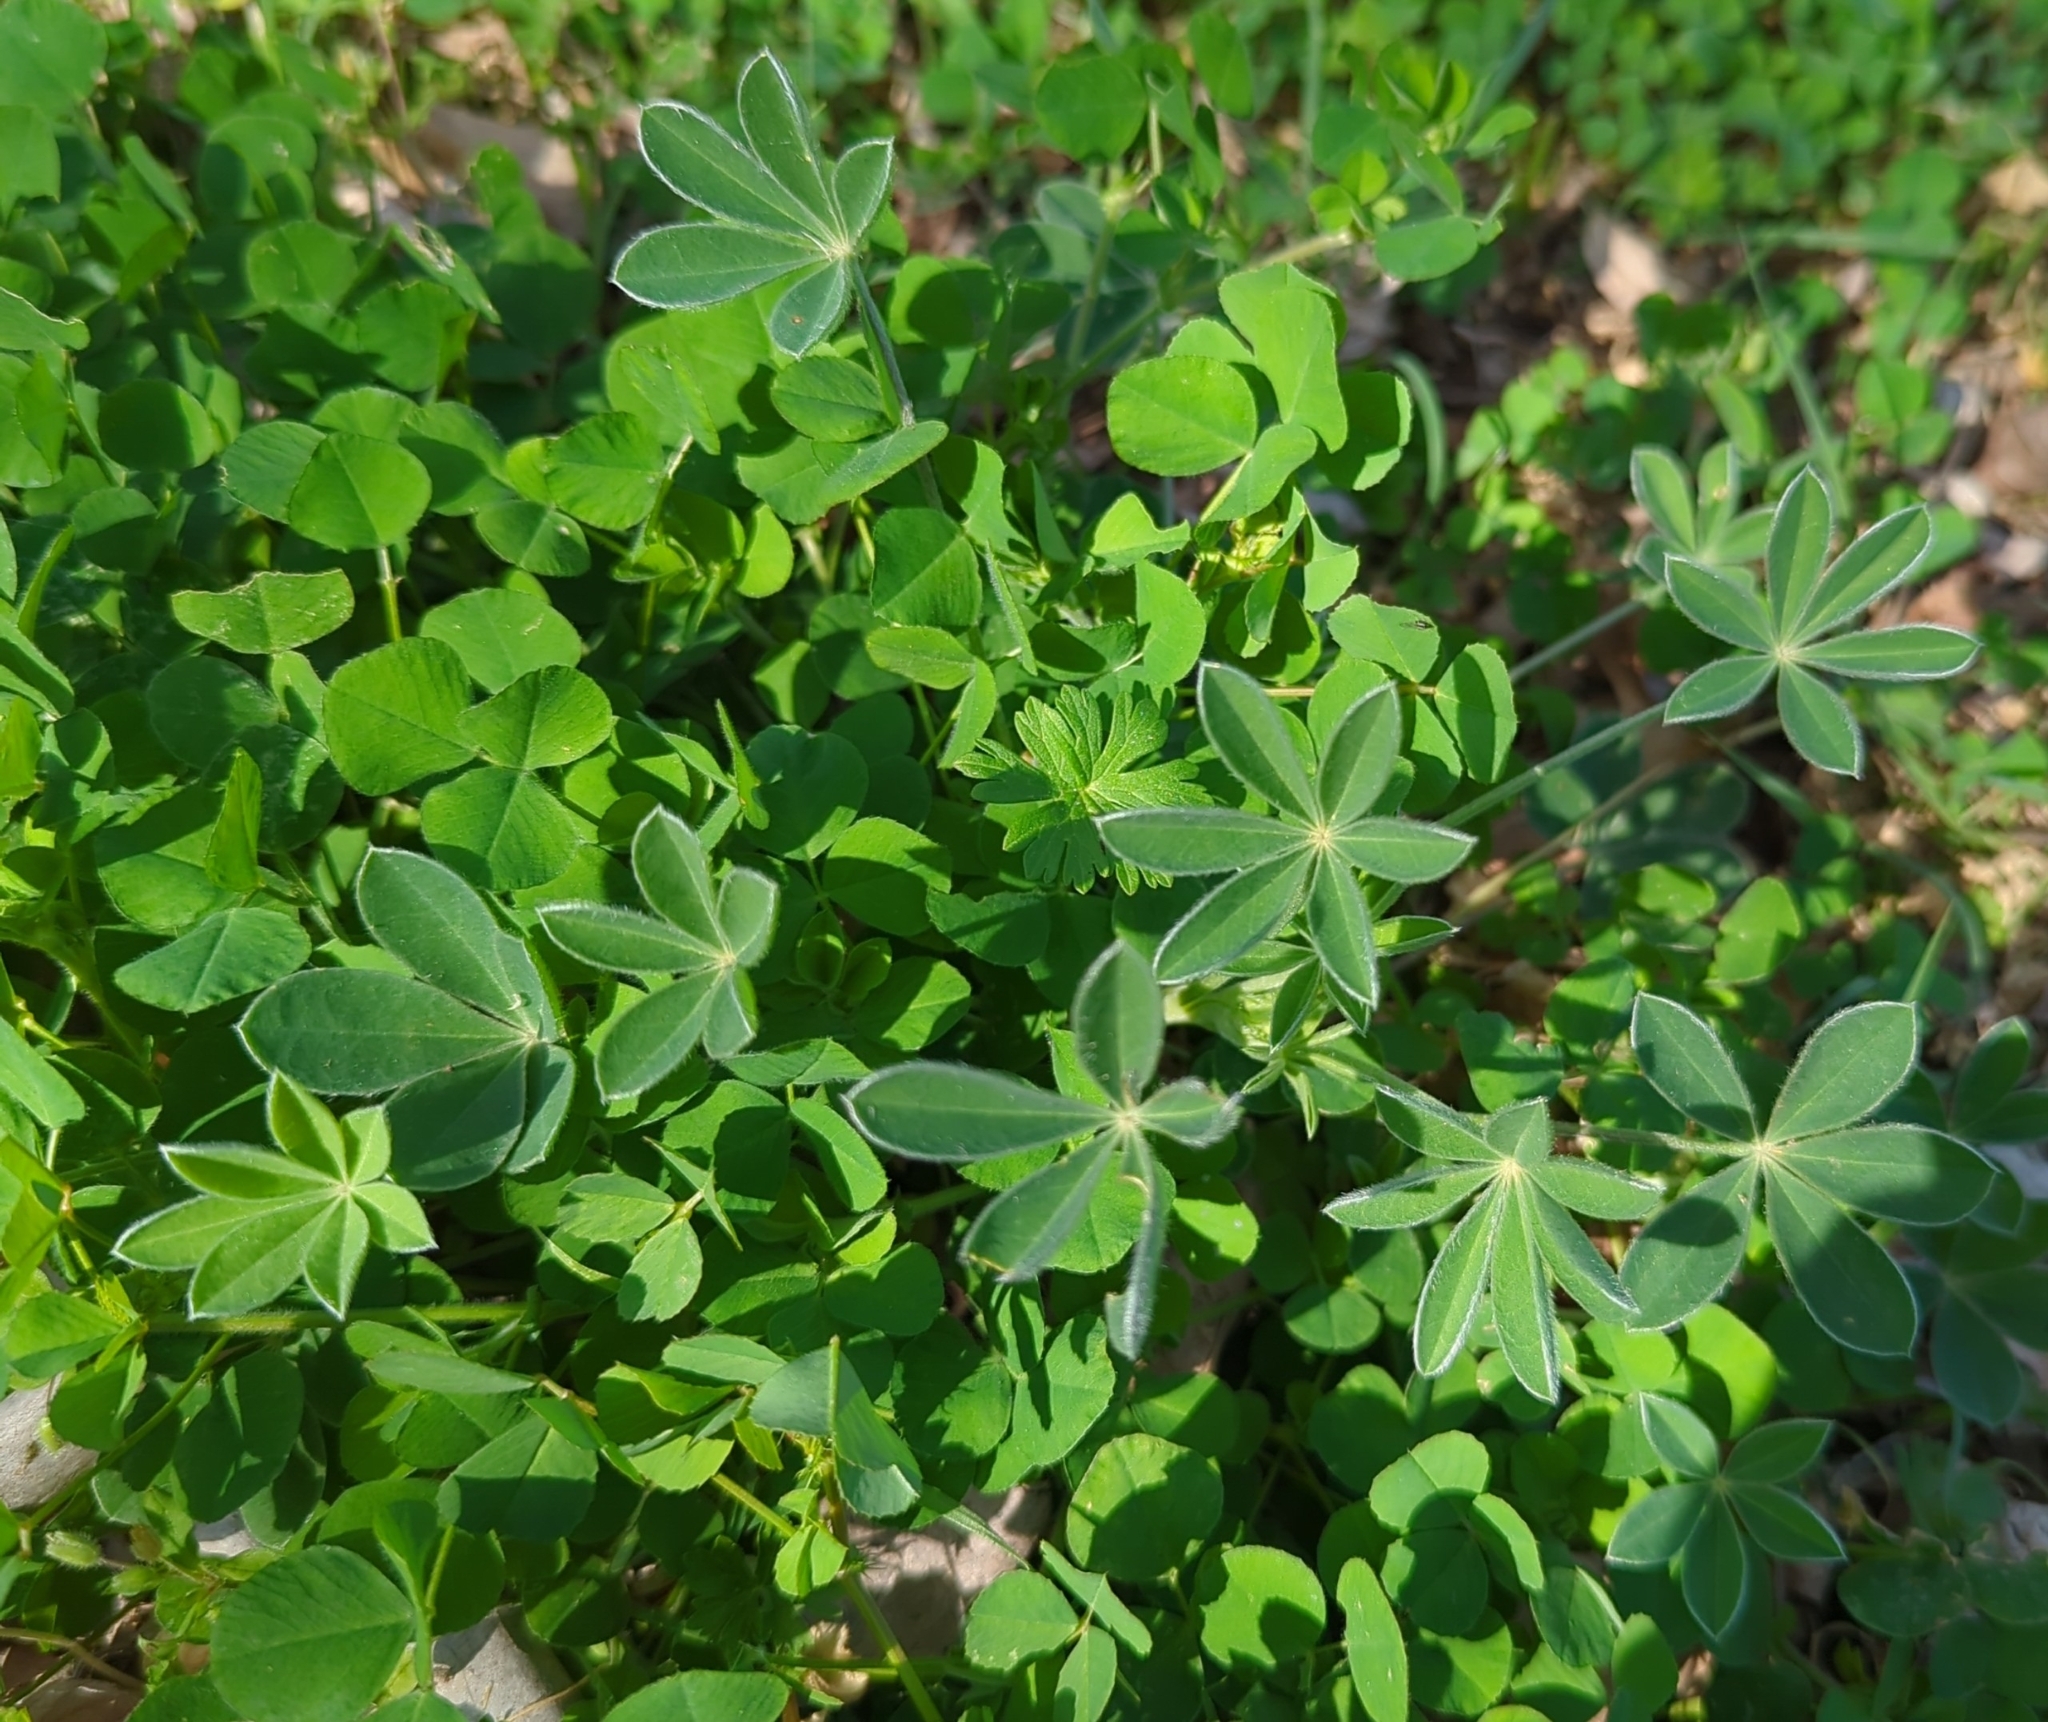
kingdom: Plantae
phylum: Tracheophyta
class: Magnoliopsida
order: Fabales
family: Fabaceae
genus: Lupinus
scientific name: Lupinus texensis
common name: Texas bluebonnet
